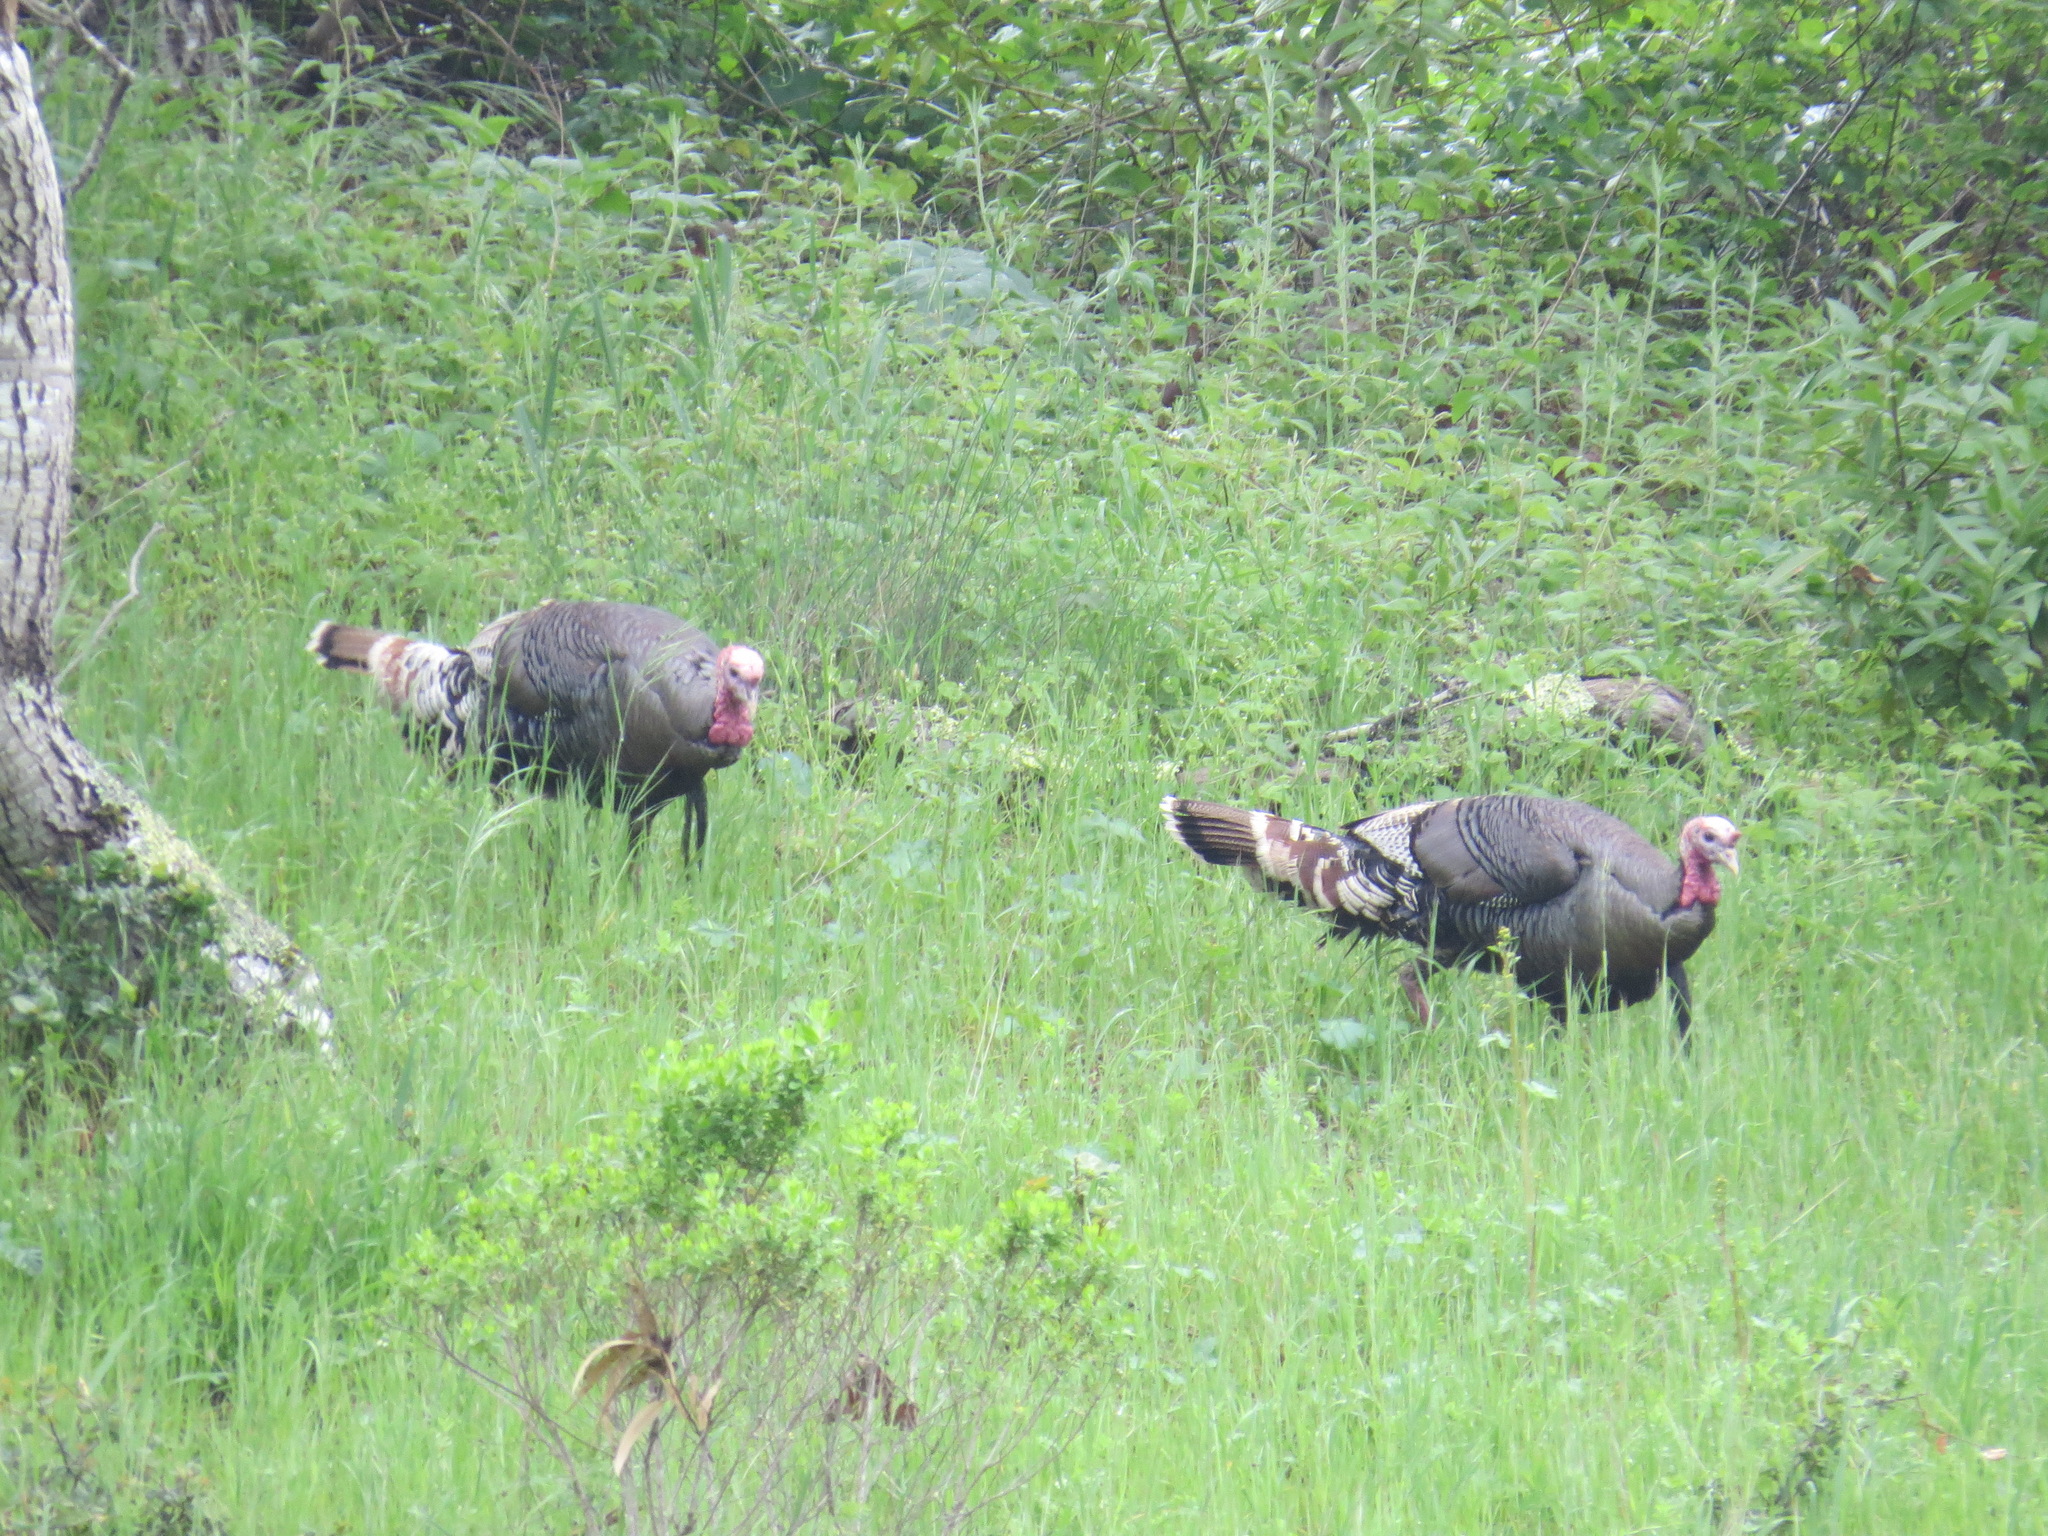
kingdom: Animalia
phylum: Chordata
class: Aves
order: Galliformes
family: Phasianidae
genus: Meleagris
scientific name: Meleagris gallopavo
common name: Wild turkey
